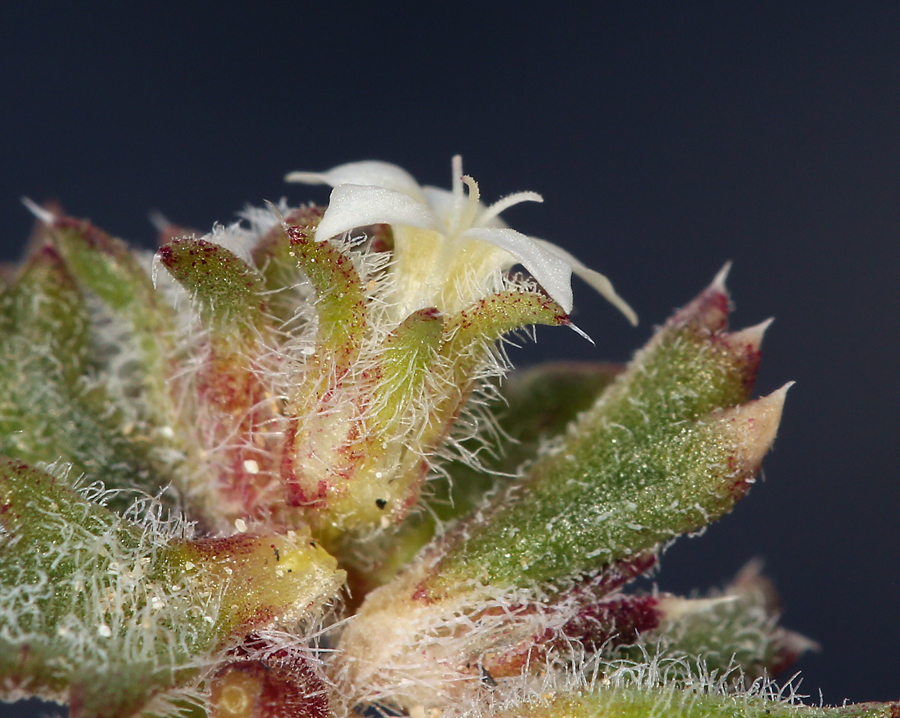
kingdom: Plantae
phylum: Tracheophyta
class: Magnoliopsida
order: Ericales
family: Polemoniaceae
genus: Ipomopsis
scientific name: Ipomopsis polycladon
